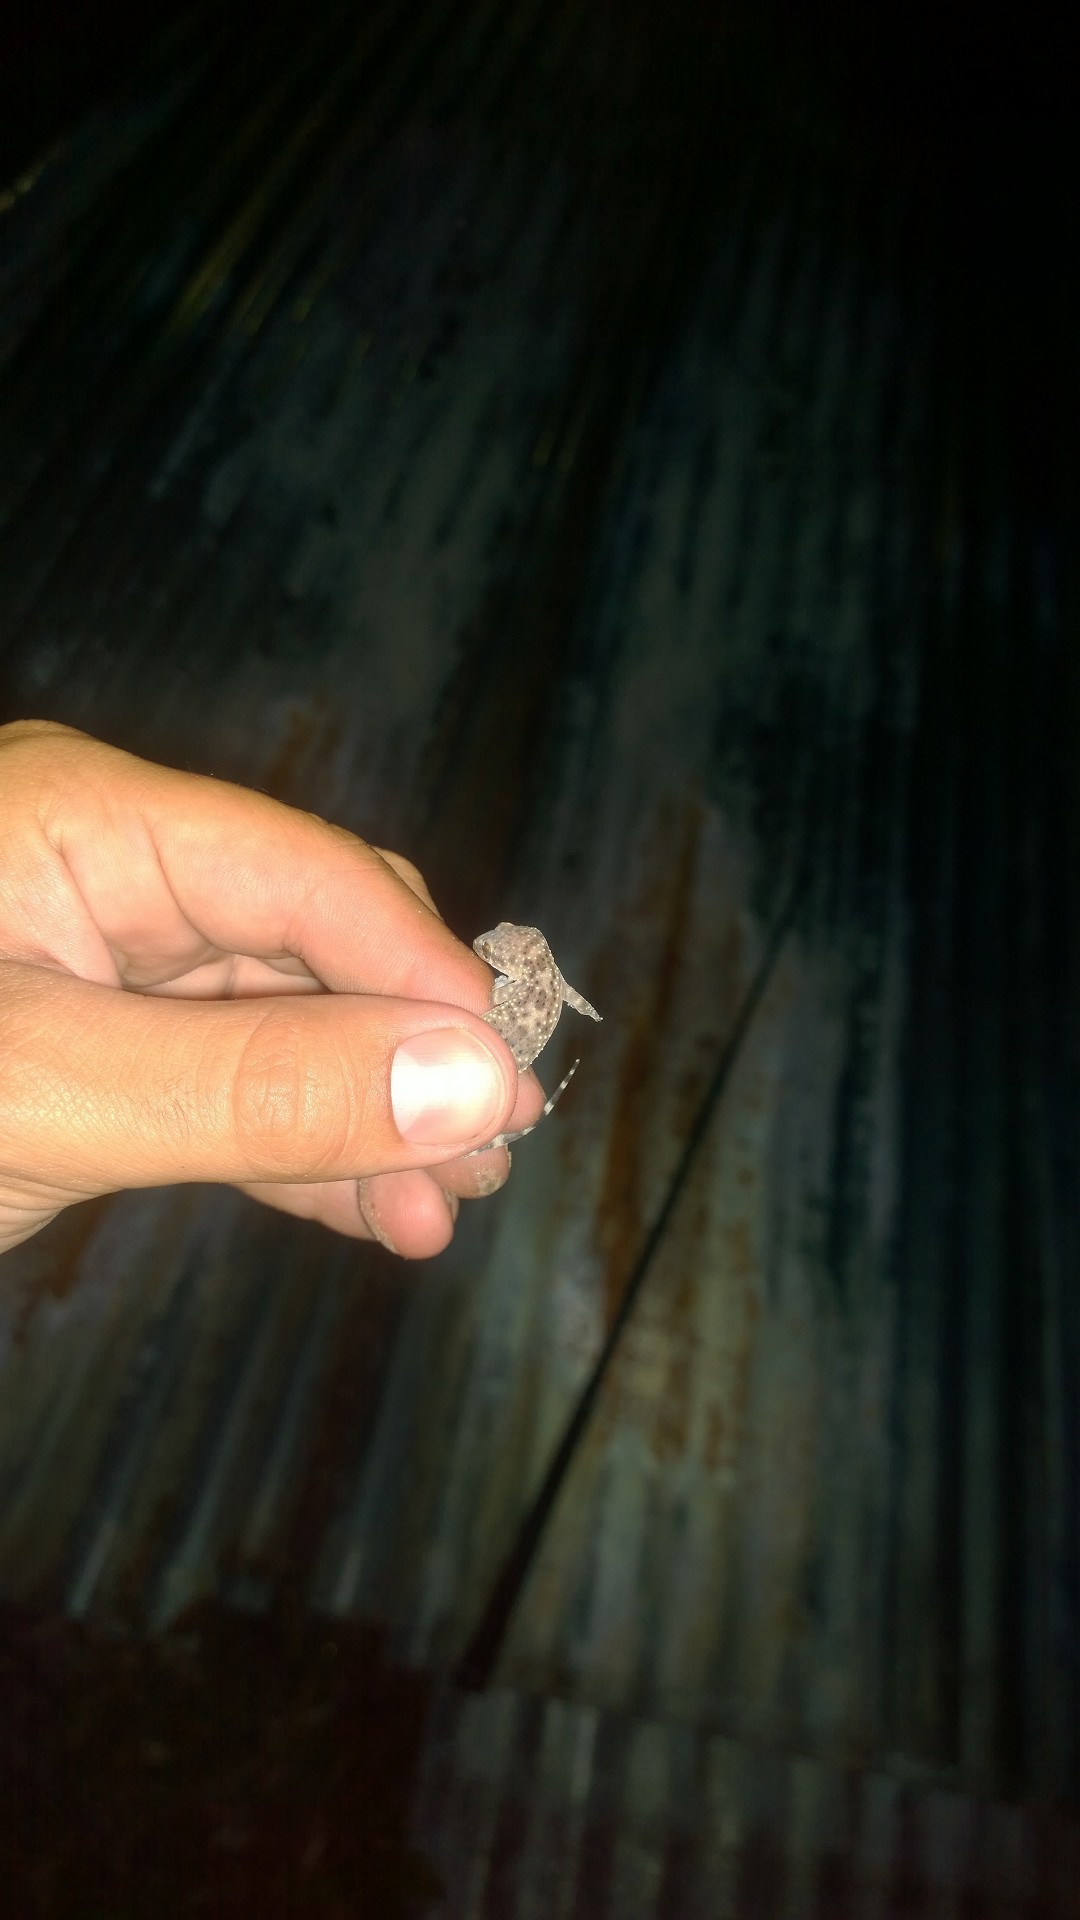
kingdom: Animalia
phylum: Chordata
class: Squamata
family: Gekkonidae
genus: Hemidactylus
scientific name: Hemidactylus turcicus
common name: Turkish gecko
